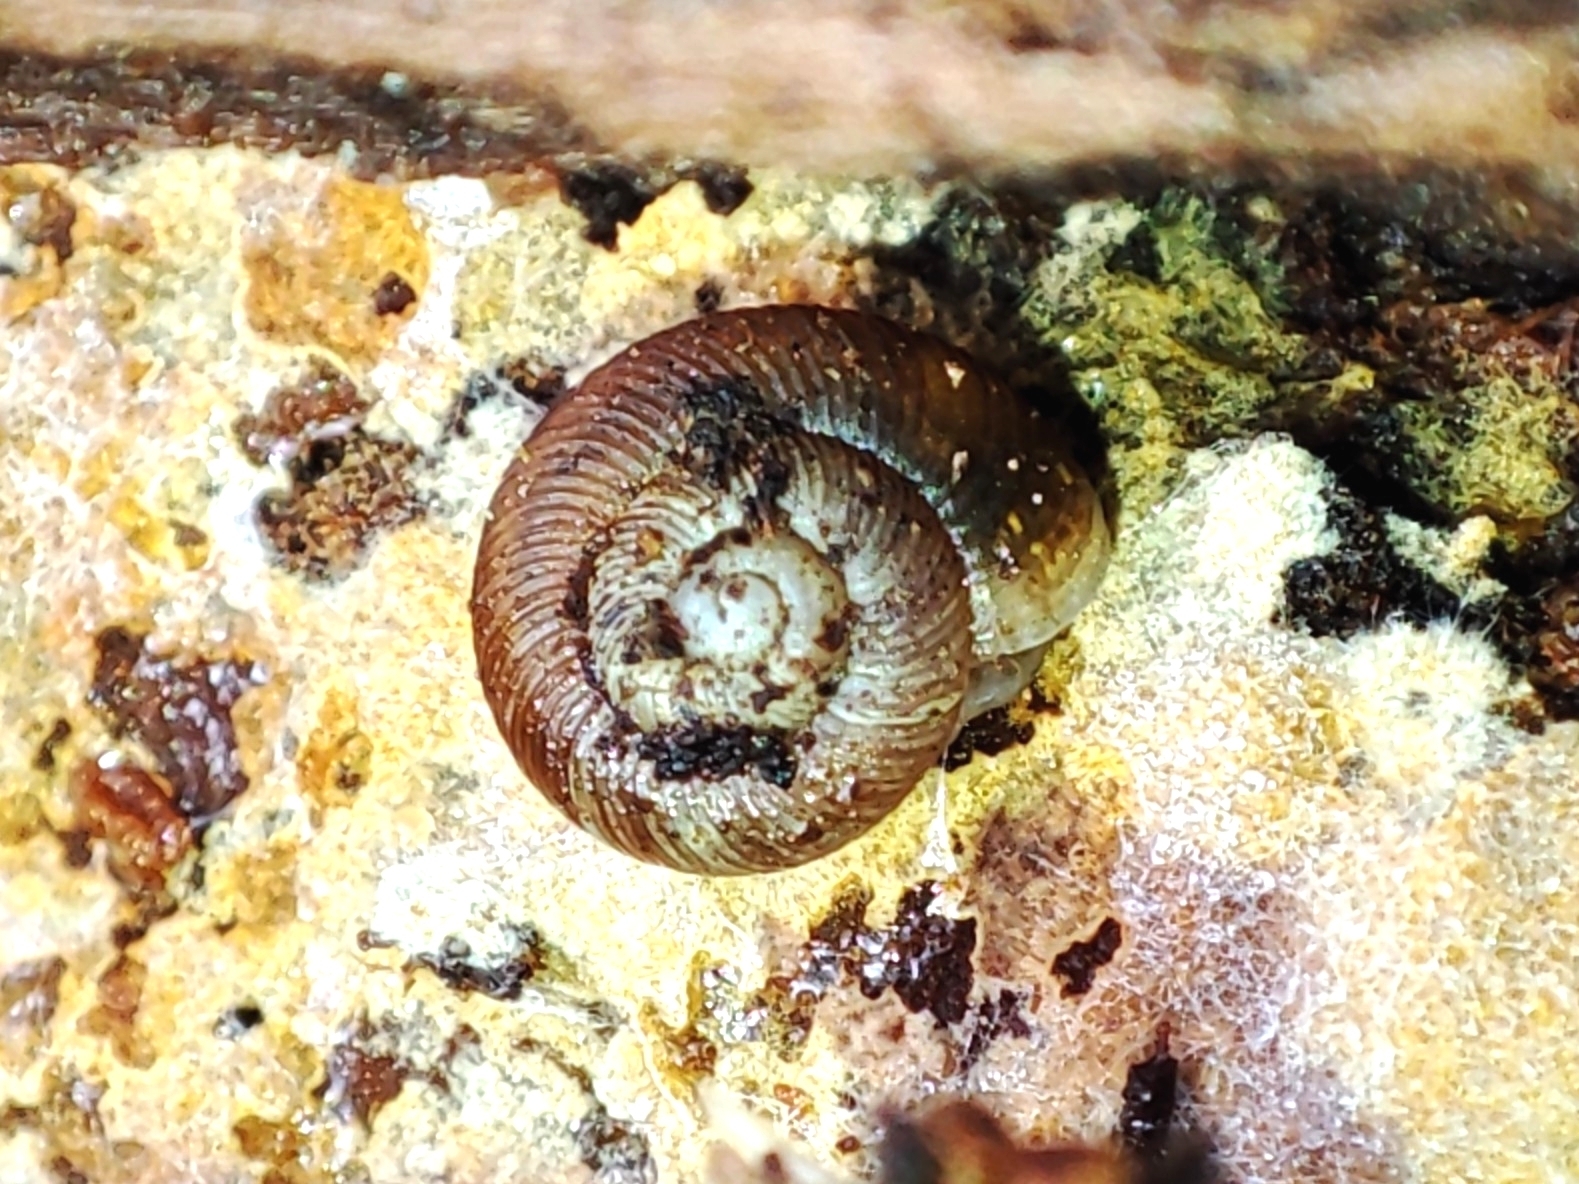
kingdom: Animalia
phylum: Mollusca
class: Gastropoda
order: Stylommatophora
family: Discidae
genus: Discus
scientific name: Discus ruderatus
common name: Brown disc snail
